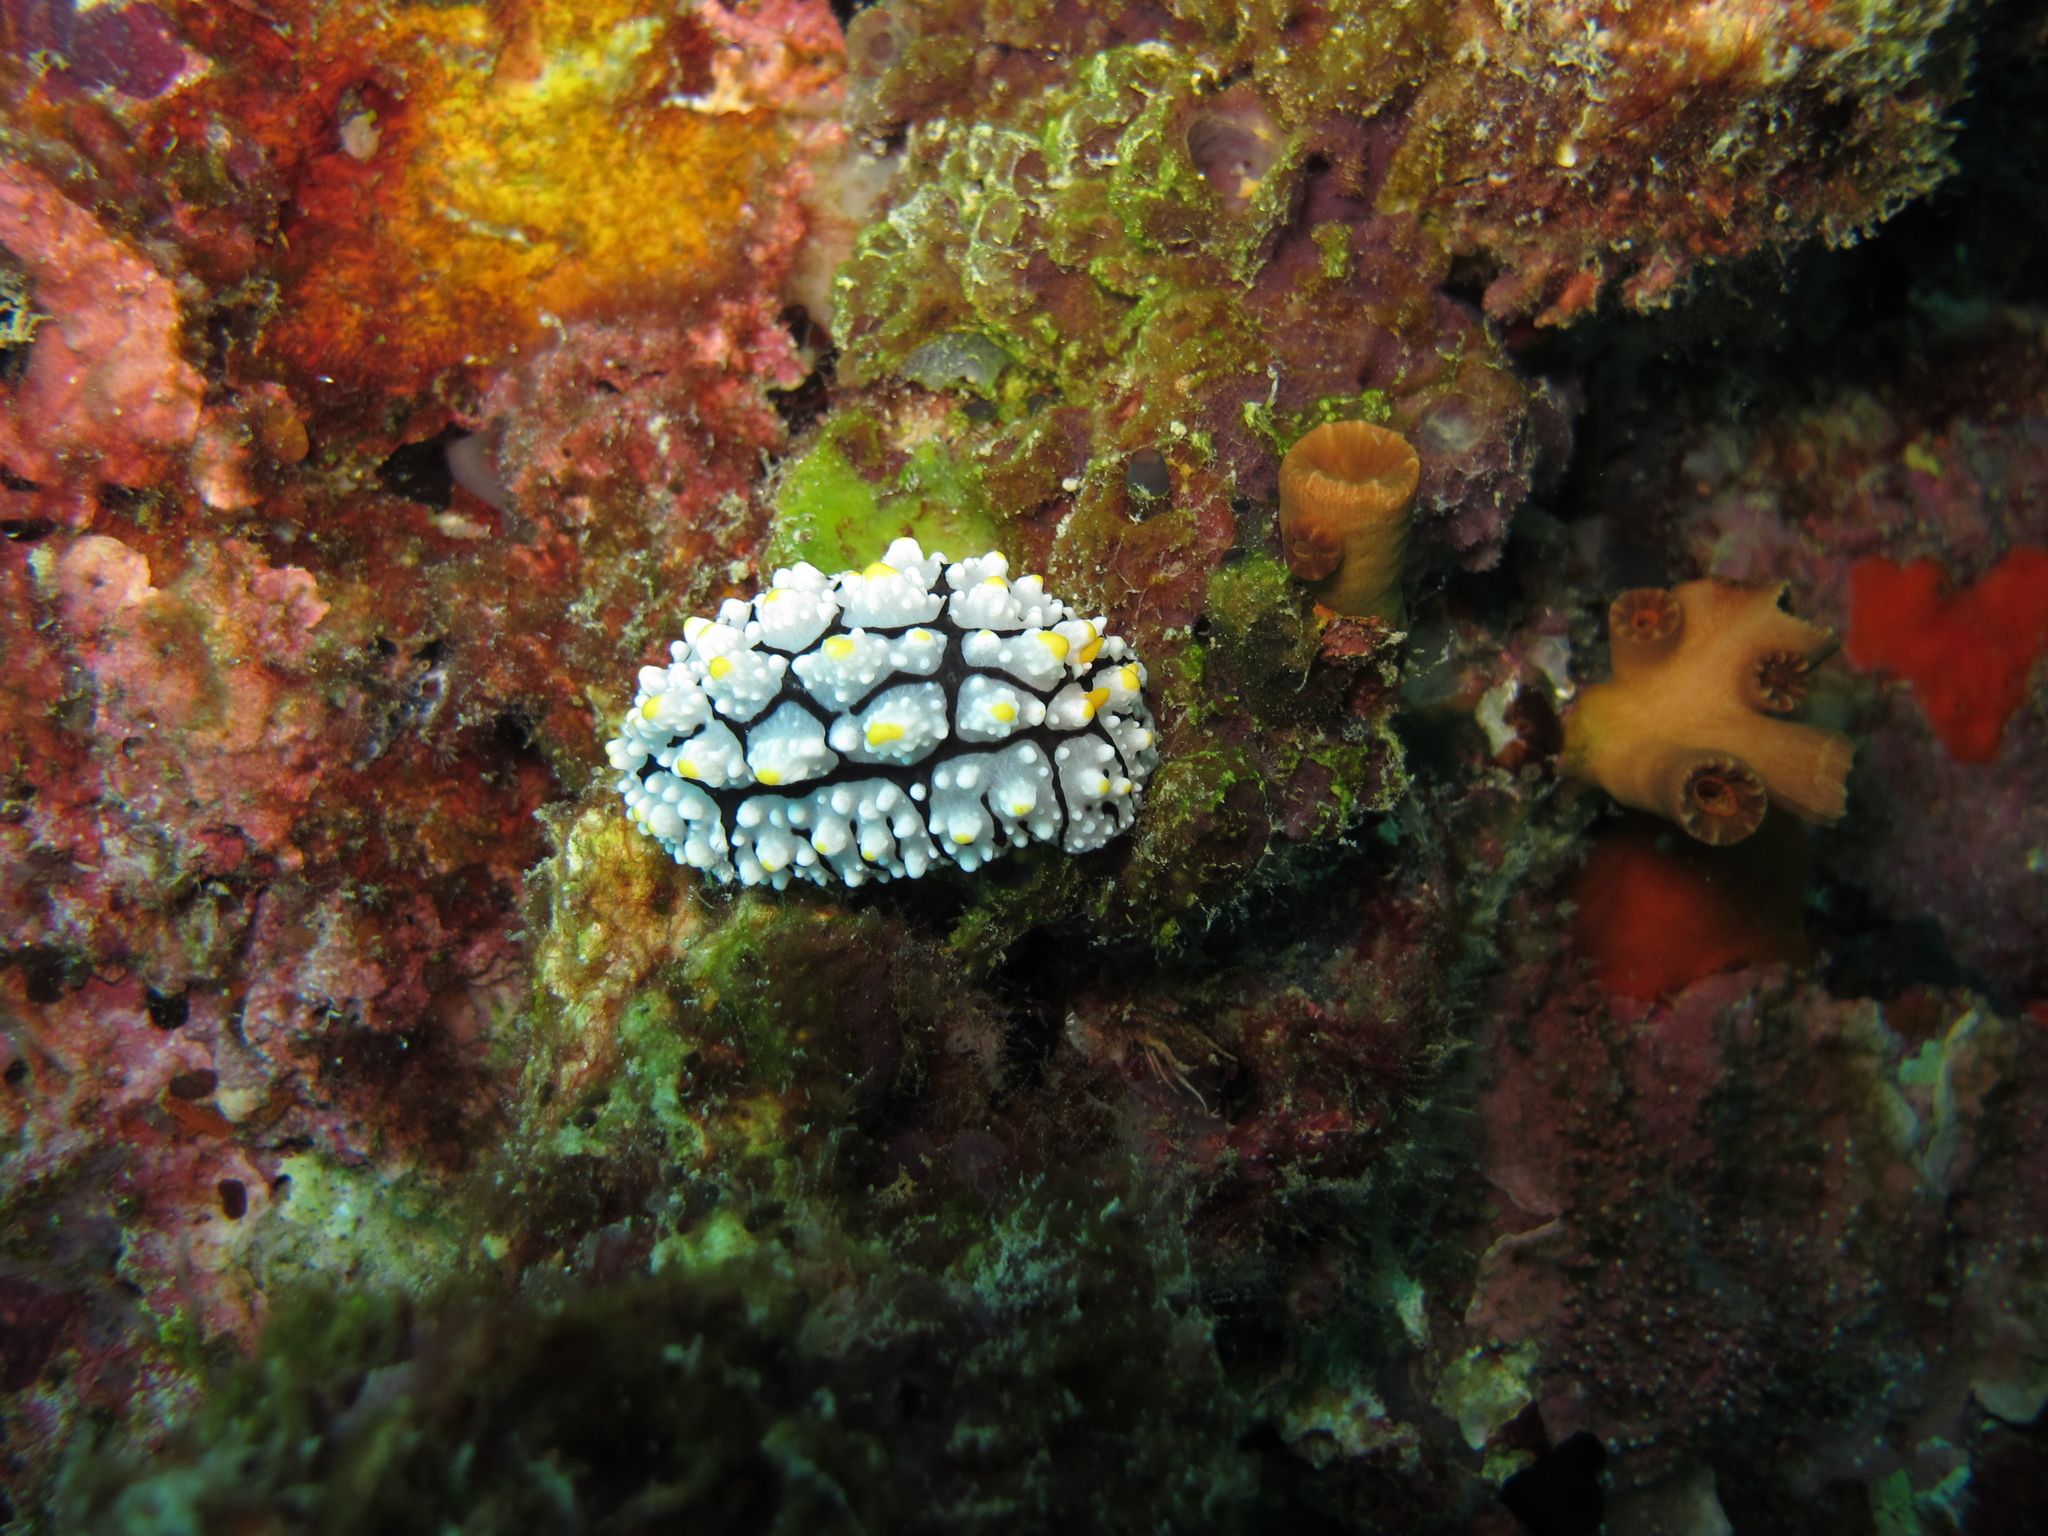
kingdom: Animalia
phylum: Mollusca
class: Gastropoda
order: Nudibranchia
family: Phyllidiidae
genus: Phyllidia
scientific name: Phyllidia elegans
